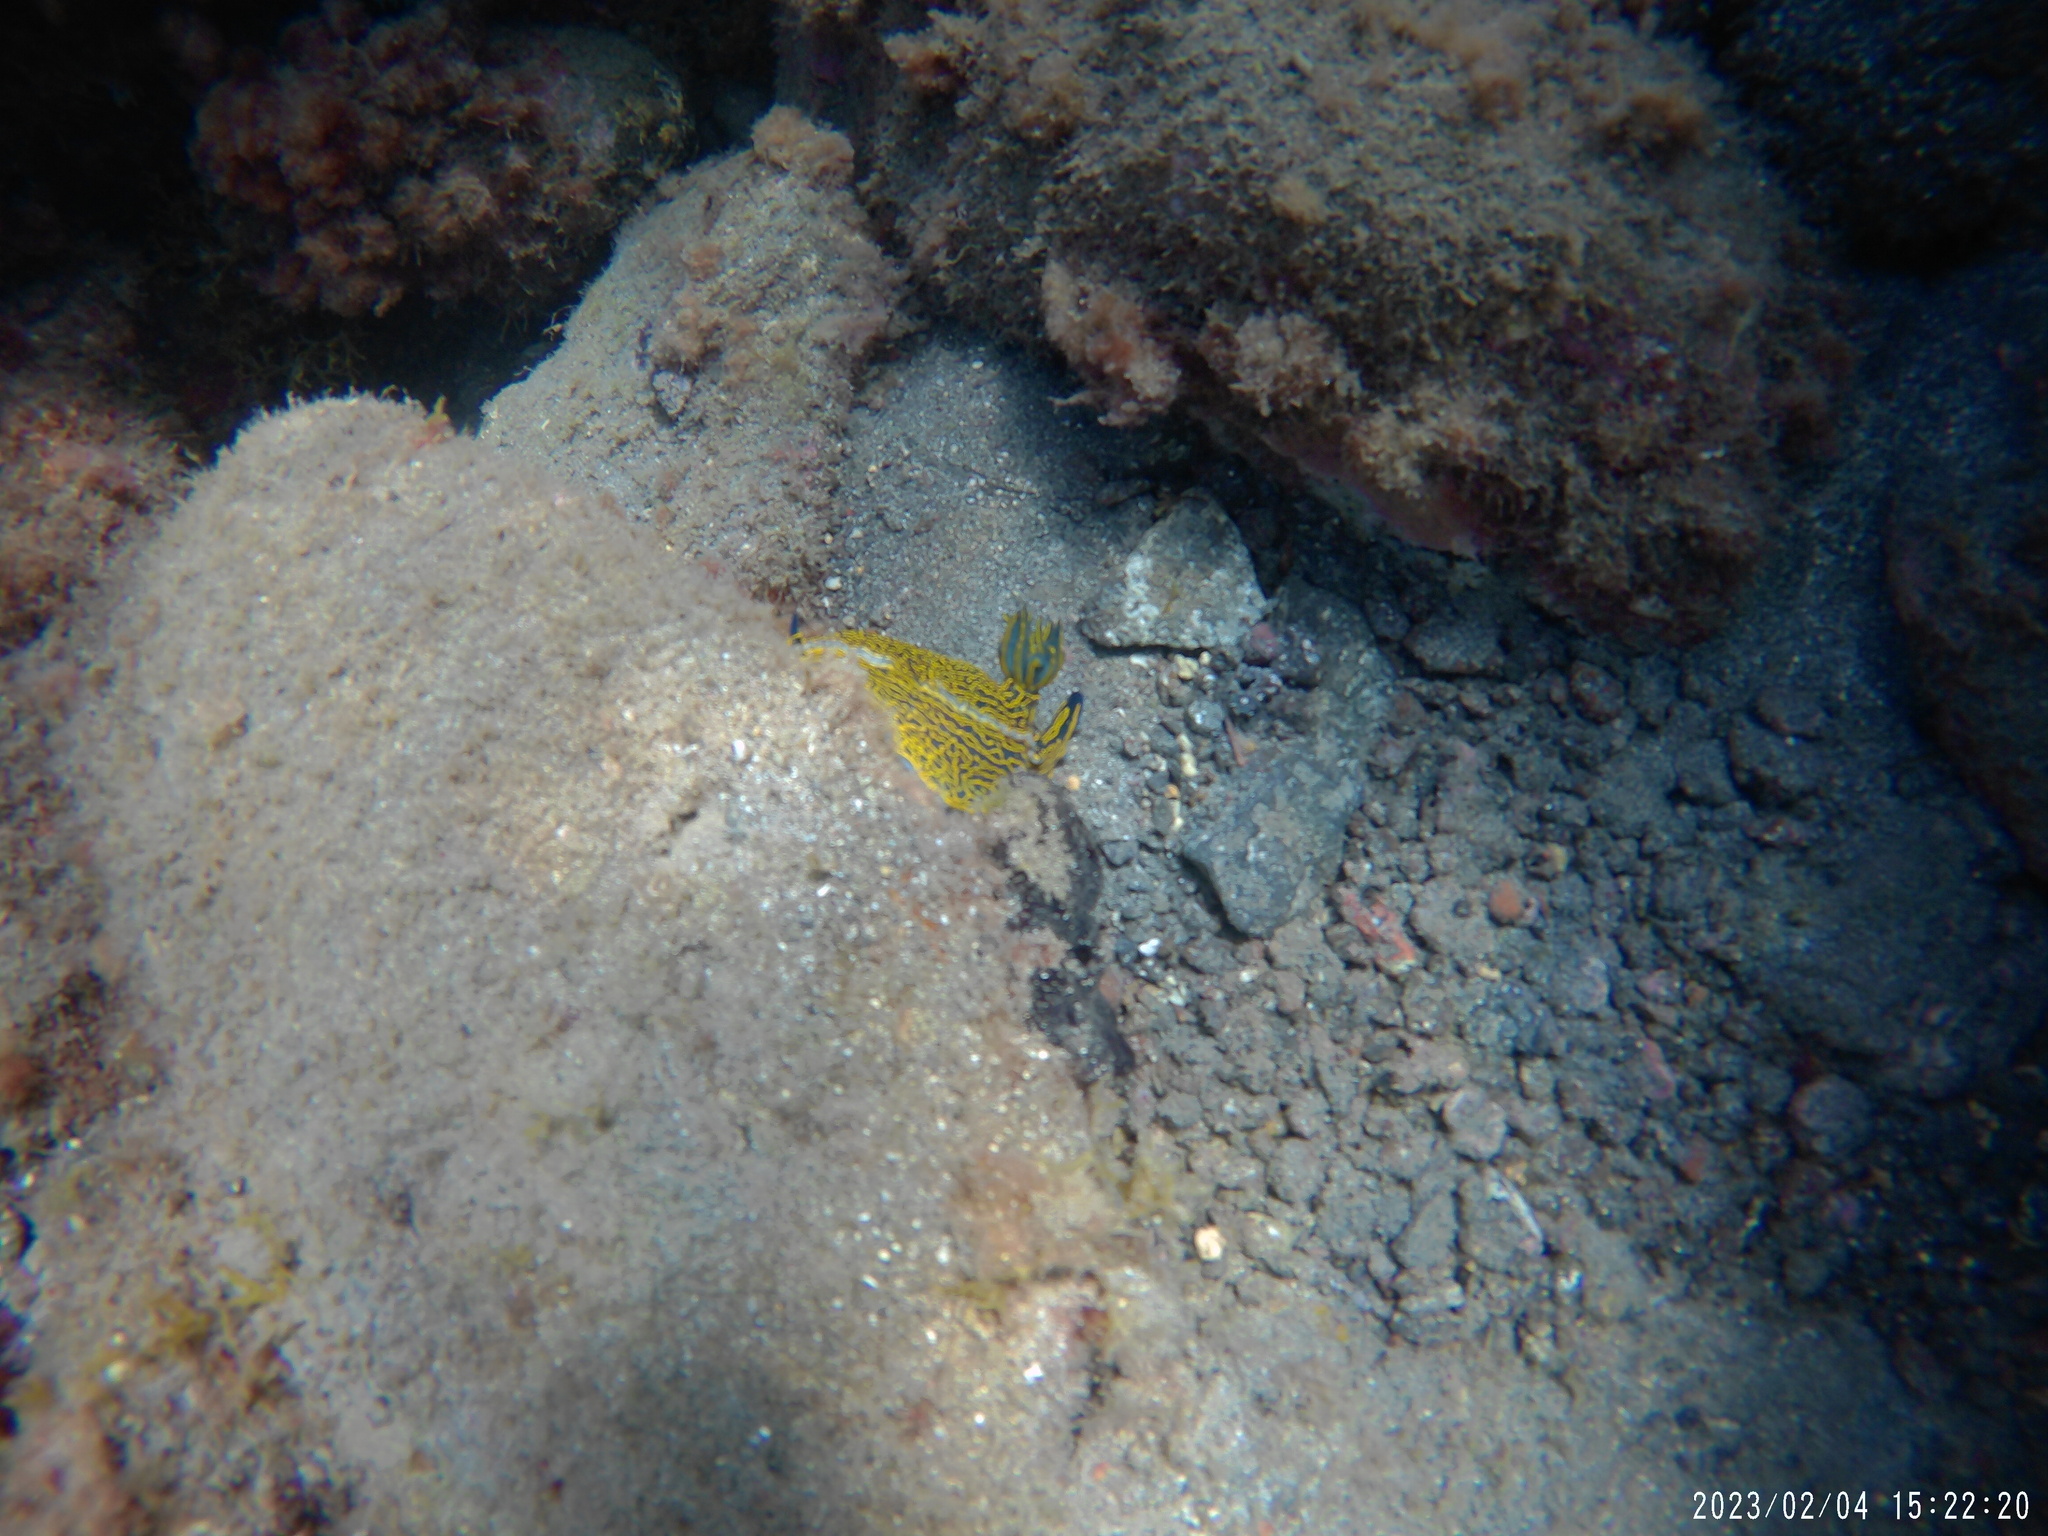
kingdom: Animalia
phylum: Mollusca
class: Gastropoda
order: Nudibranchia
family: Chromodorididae
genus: Felimare
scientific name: Felimare picta
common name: Giant doris
